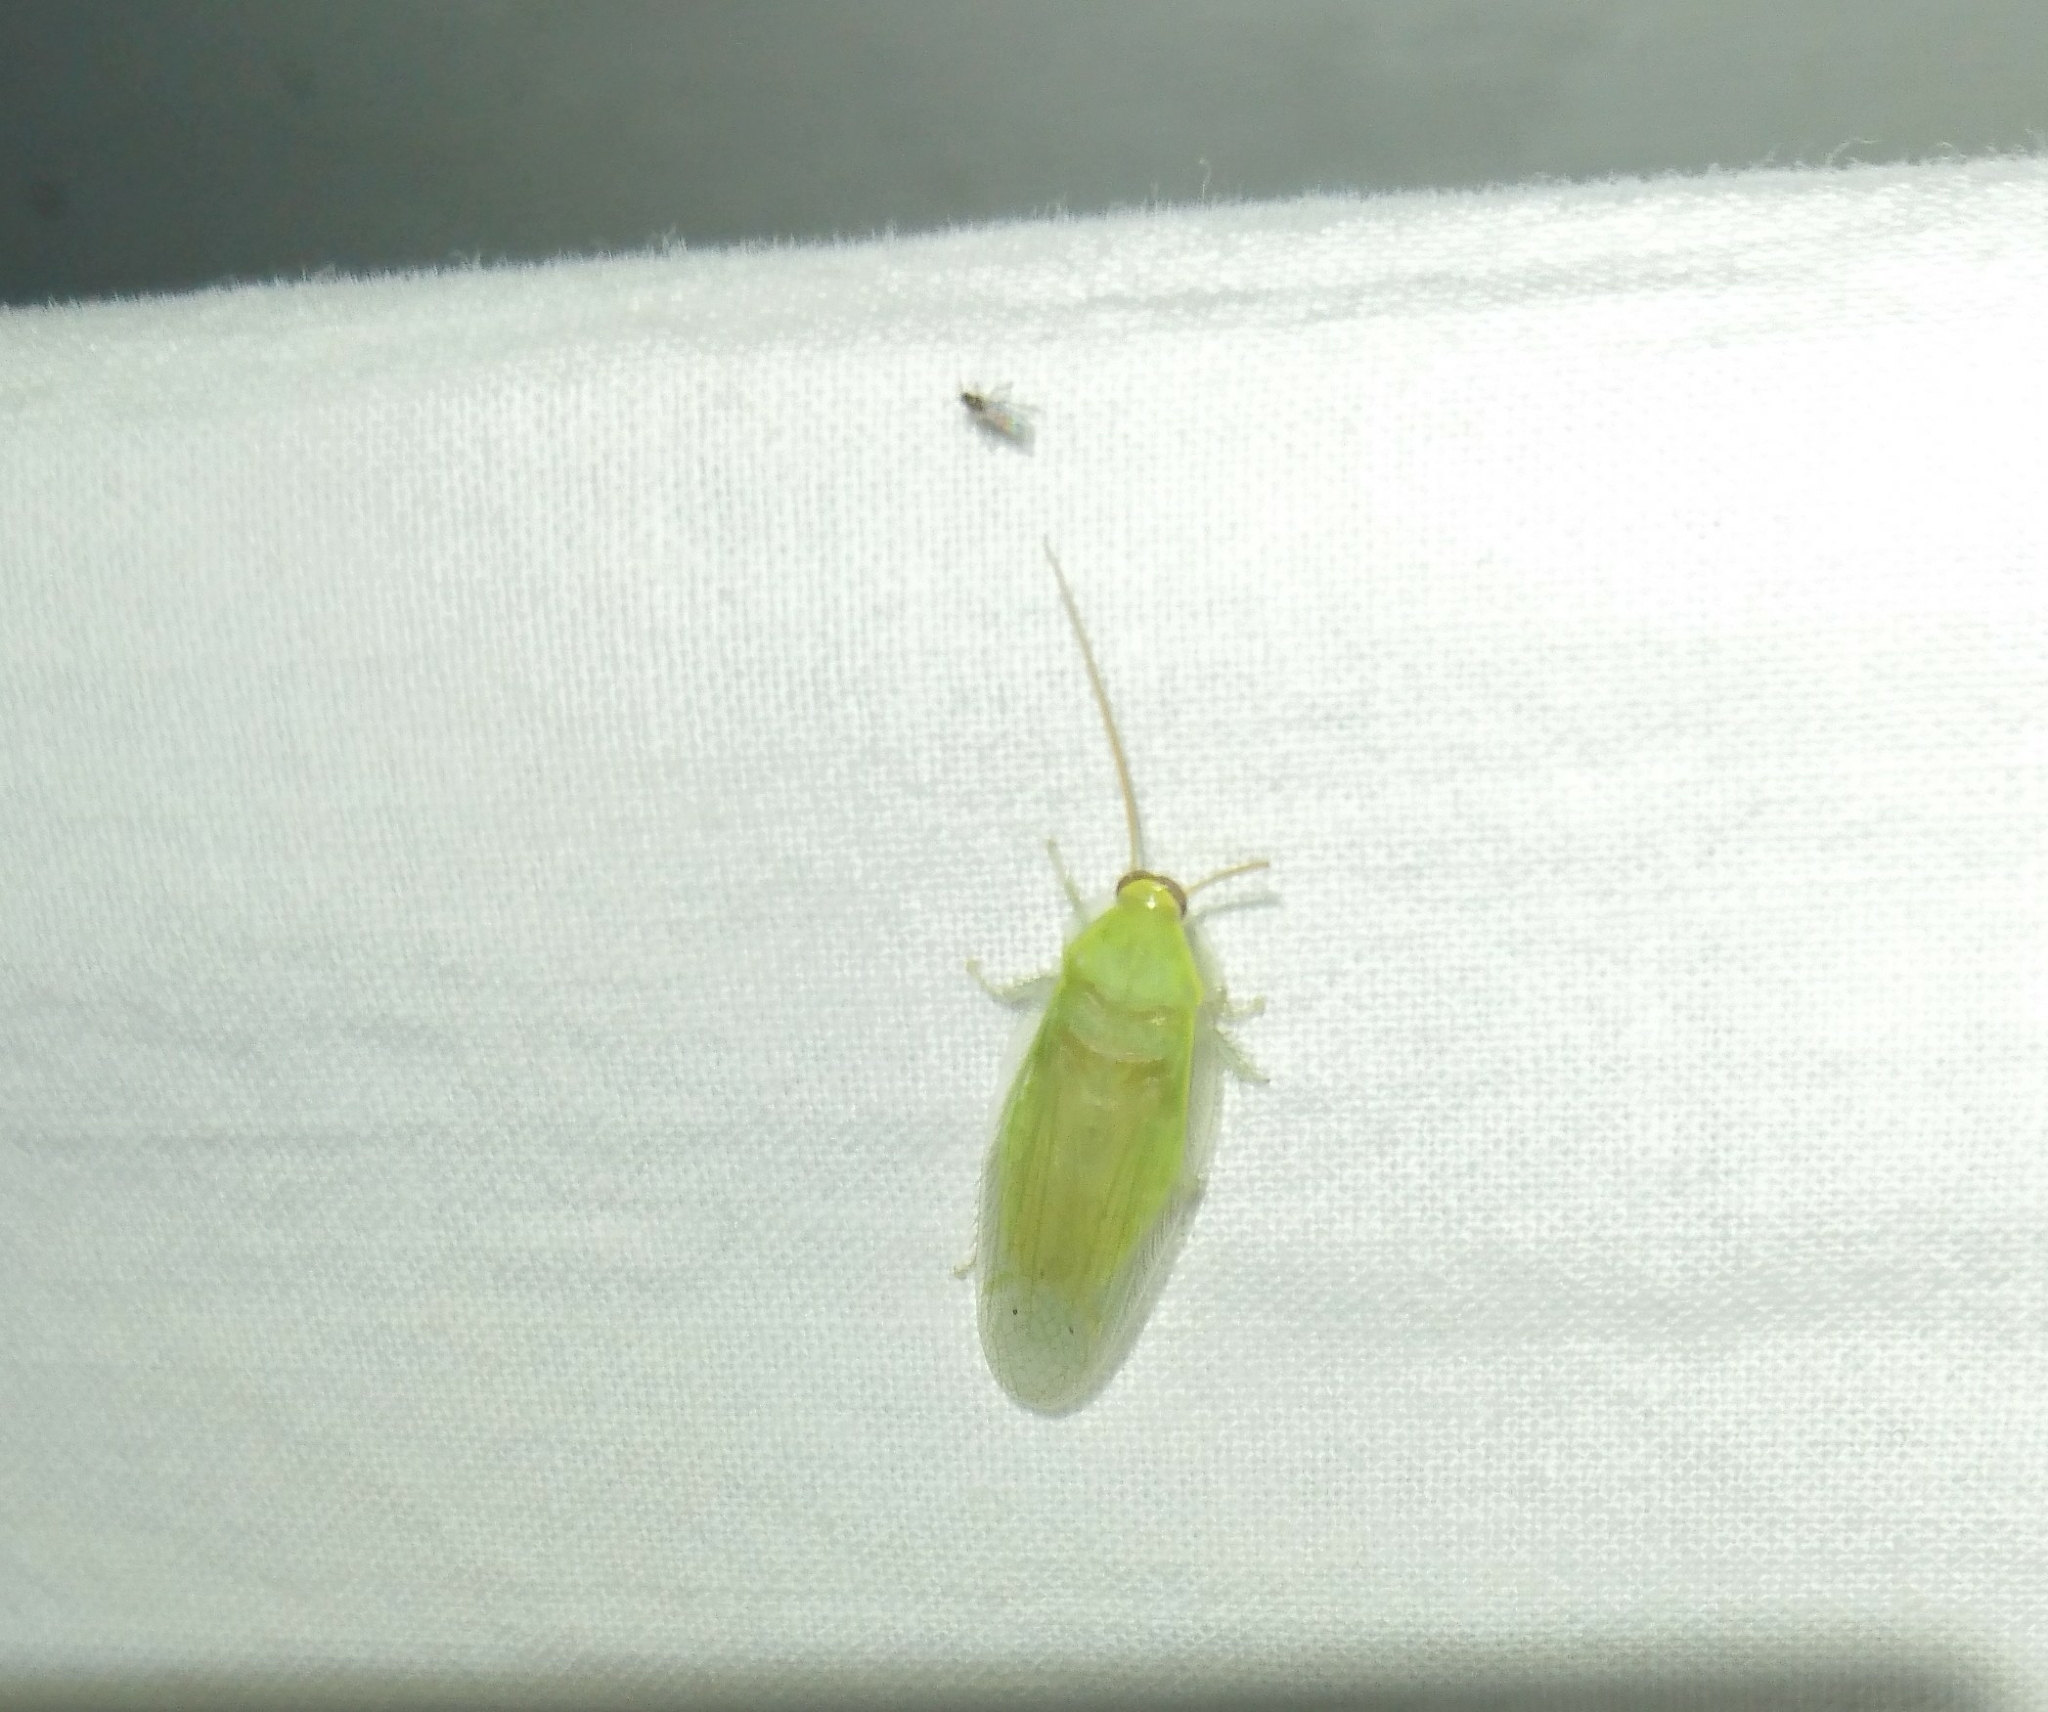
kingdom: Animalia
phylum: Arthropoda
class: Insecta
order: Blattodea
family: Blaberidae
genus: Panchlora
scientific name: Panchlora nivea
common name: Cuban cockroach
